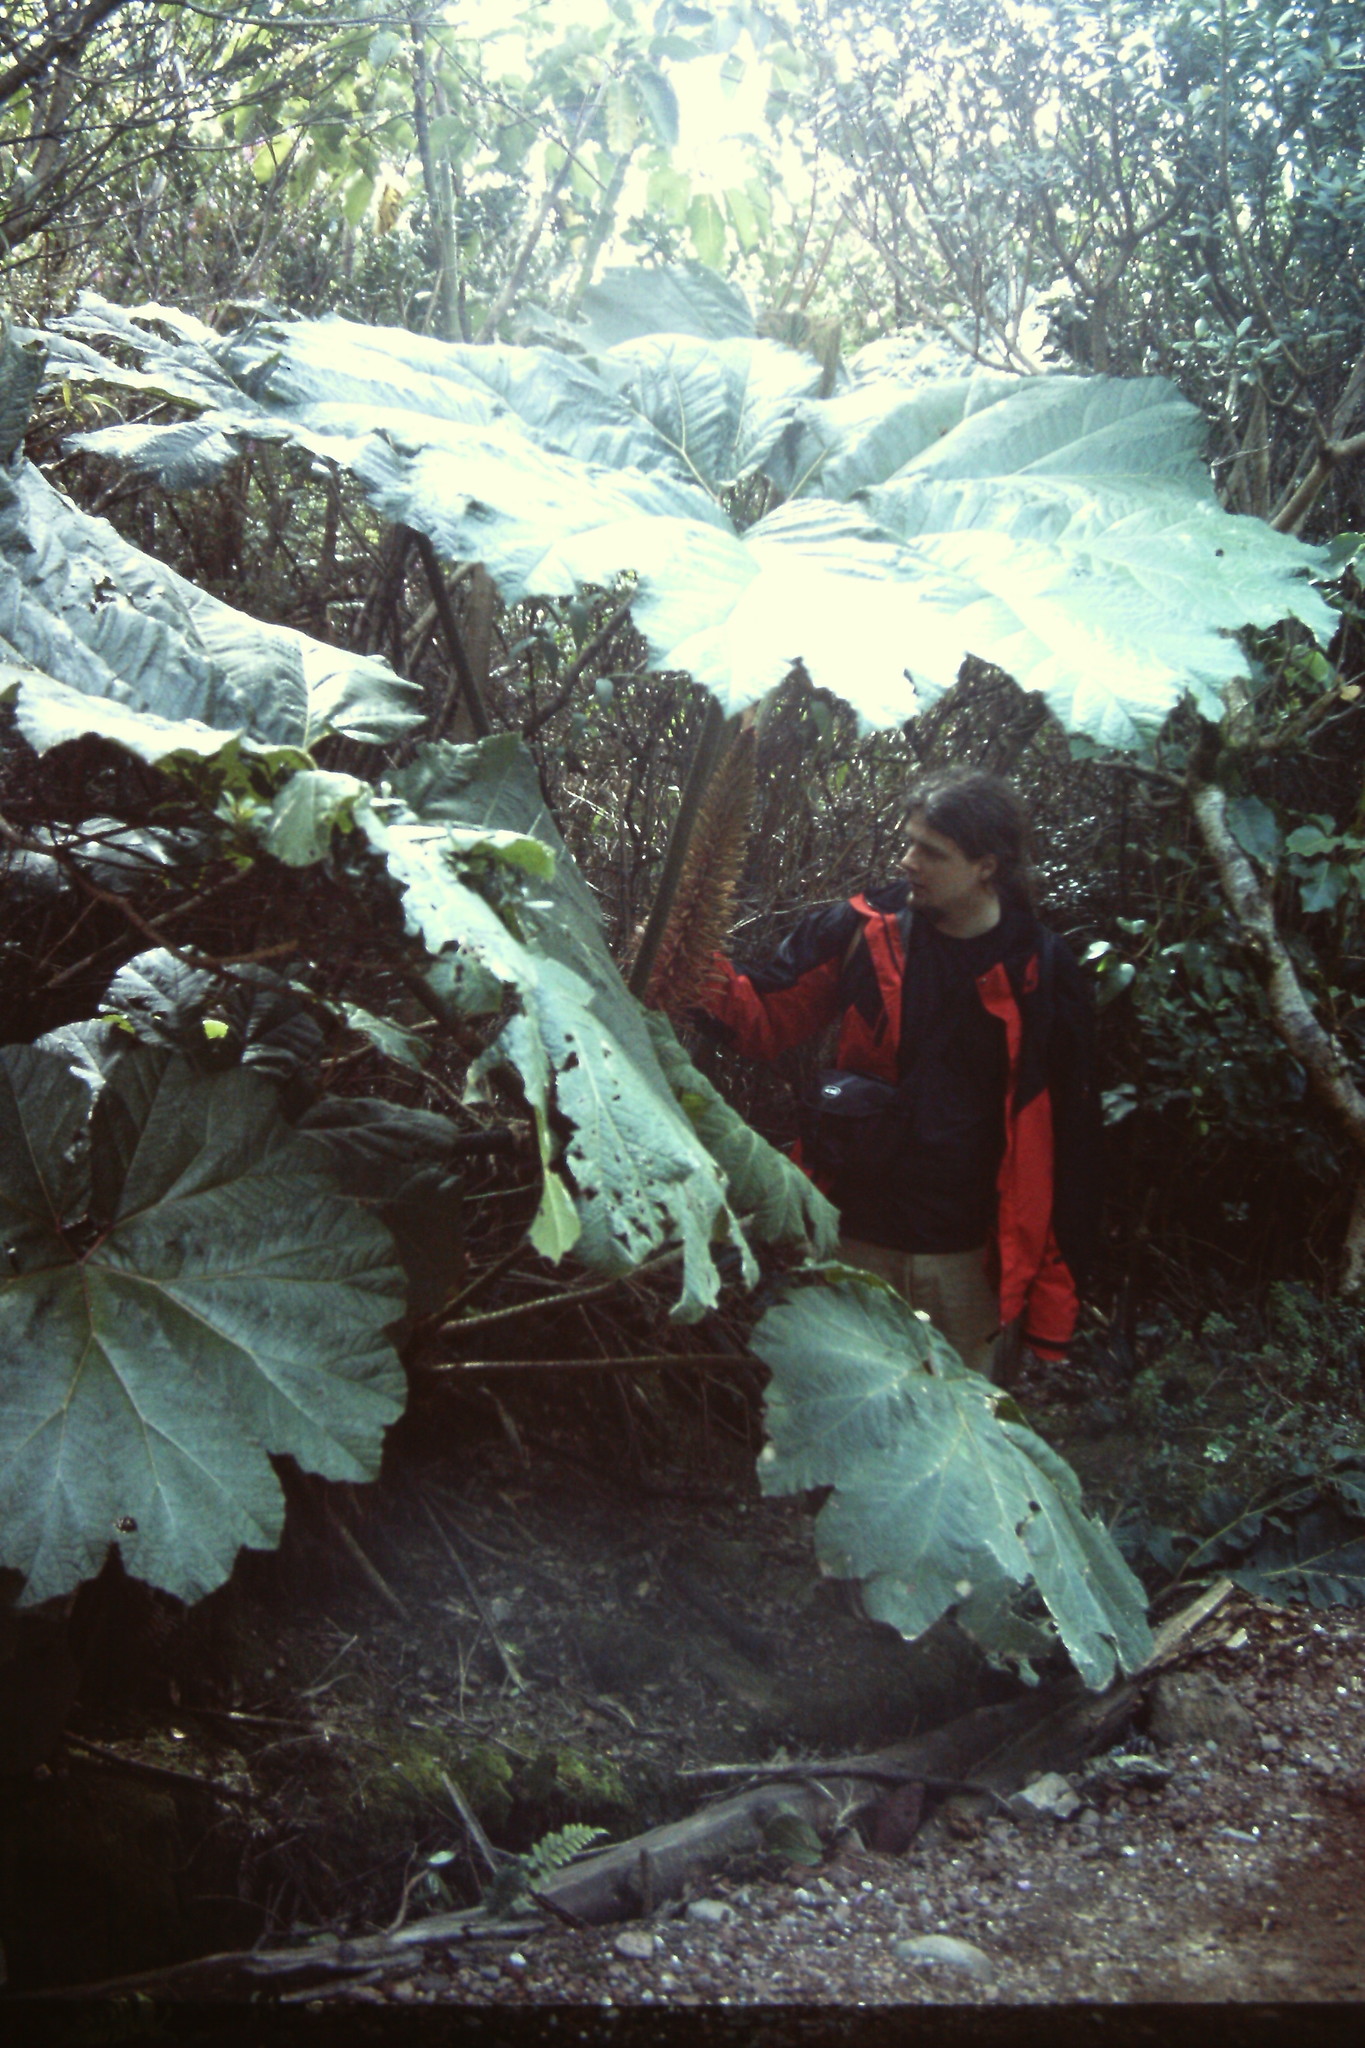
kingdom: Plantae
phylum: Tracheophyta
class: Magnoliopsida
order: Gunnerales
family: Gunneraceae
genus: Gunnera
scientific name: Gunnera insignis
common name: Poorman's umbrella
